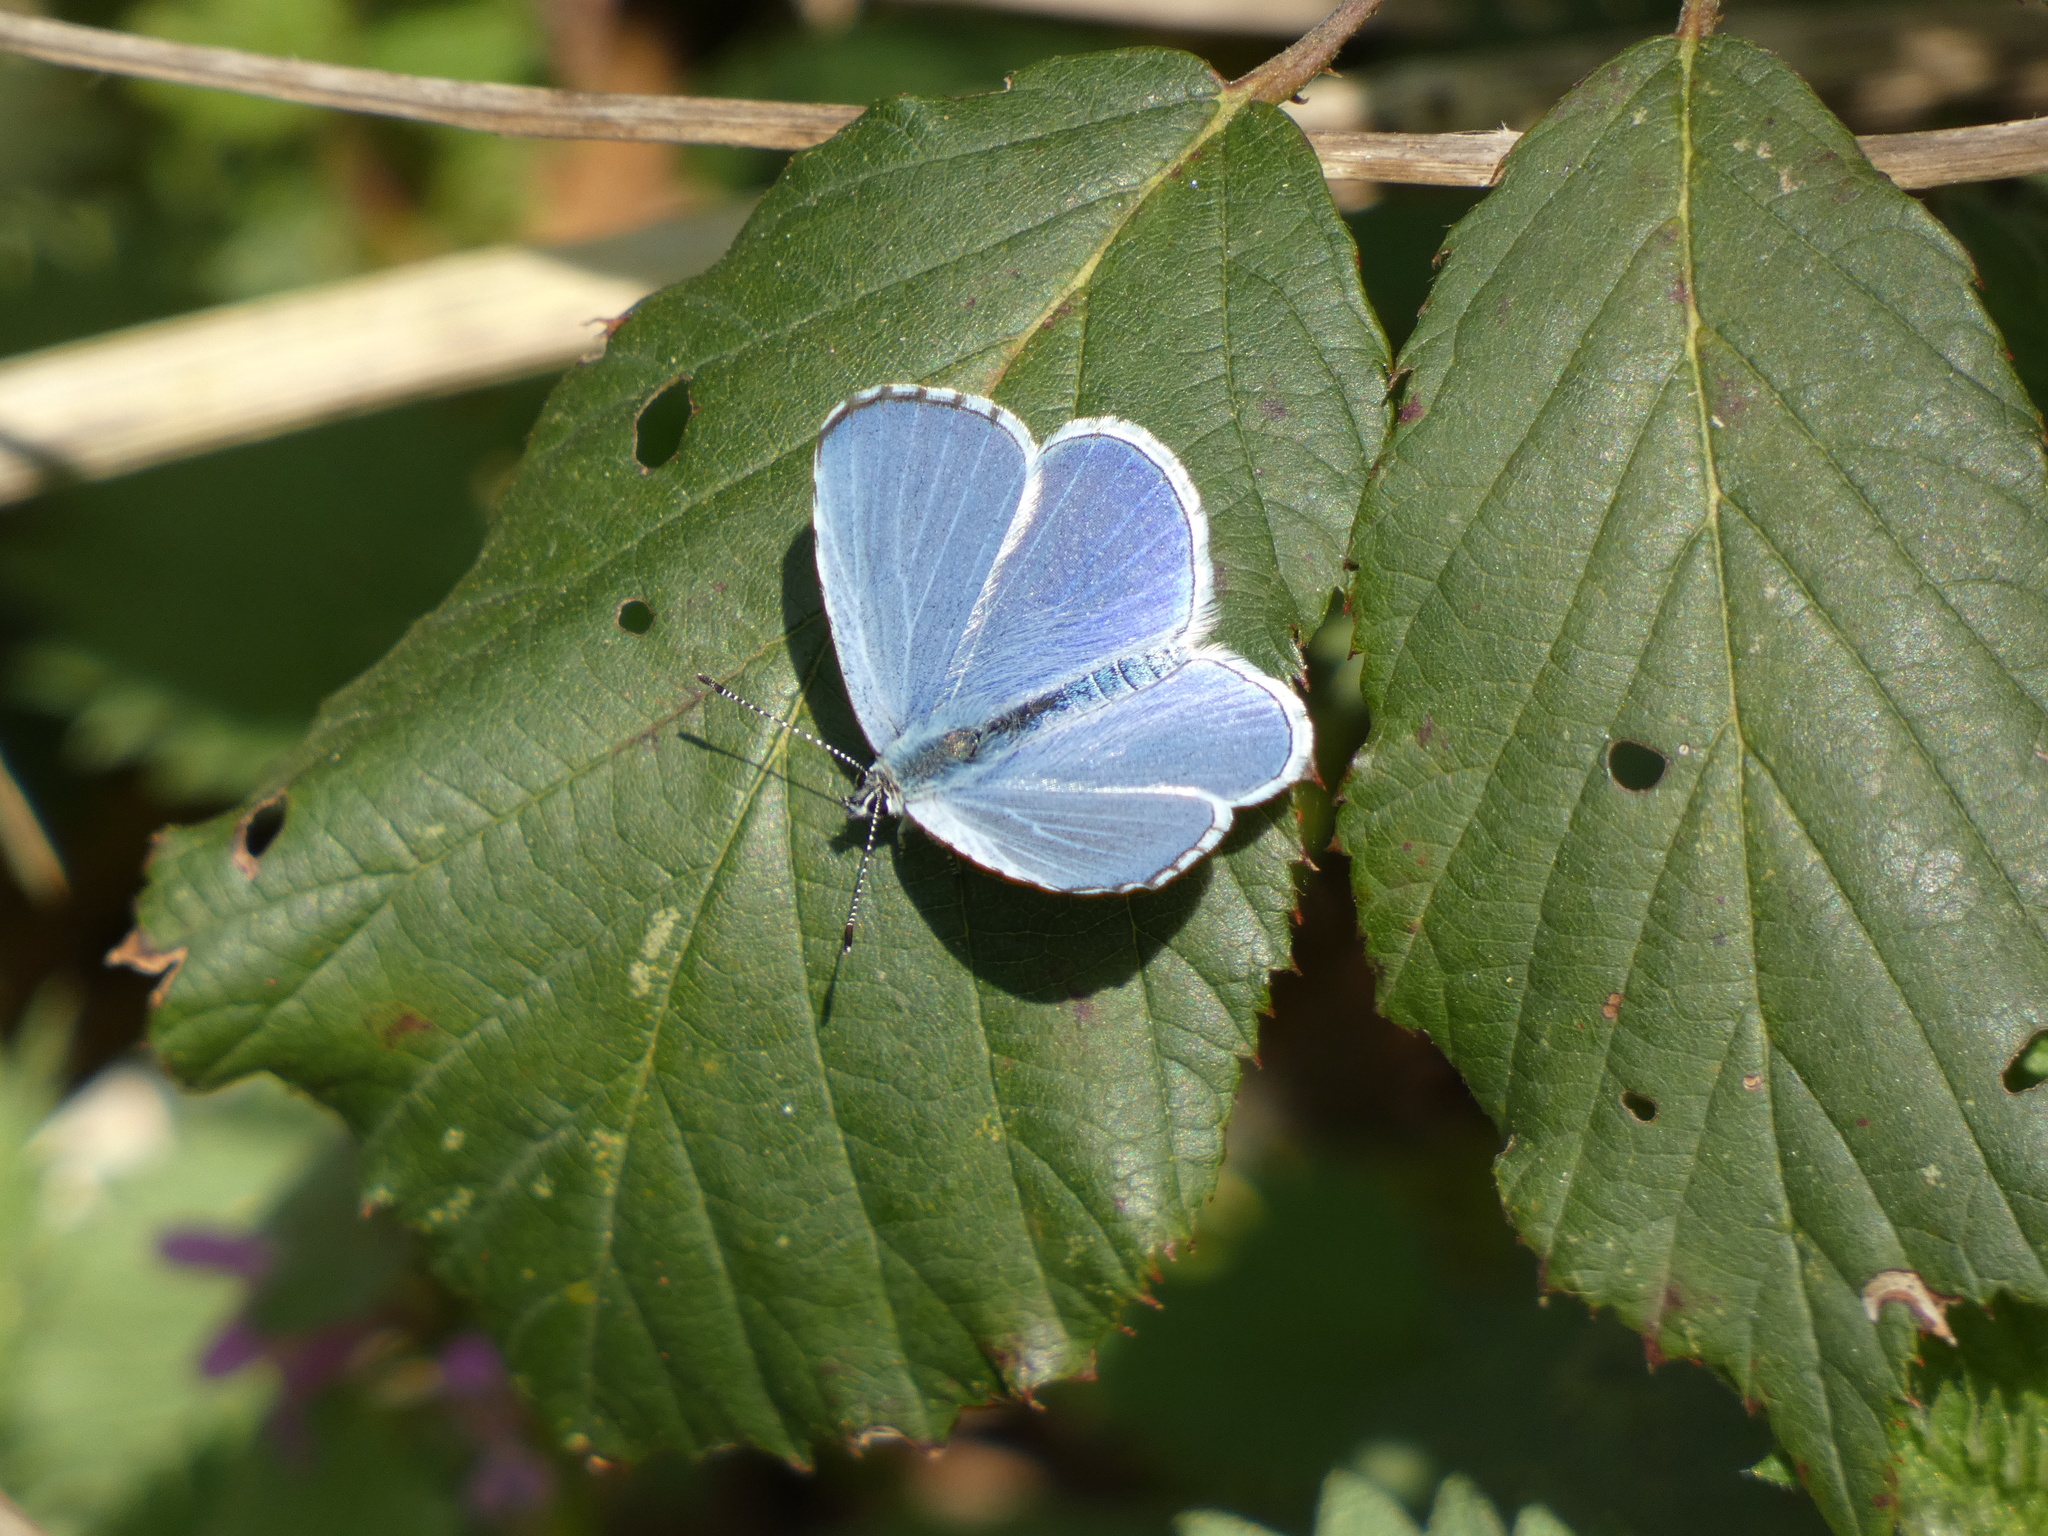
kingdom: Animalia
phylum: Arthropoda
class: Insecta
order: Lepidoptera
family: Lycaenidae
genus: Celastrina
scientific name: Celastrina argiolus
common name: Holly blue
